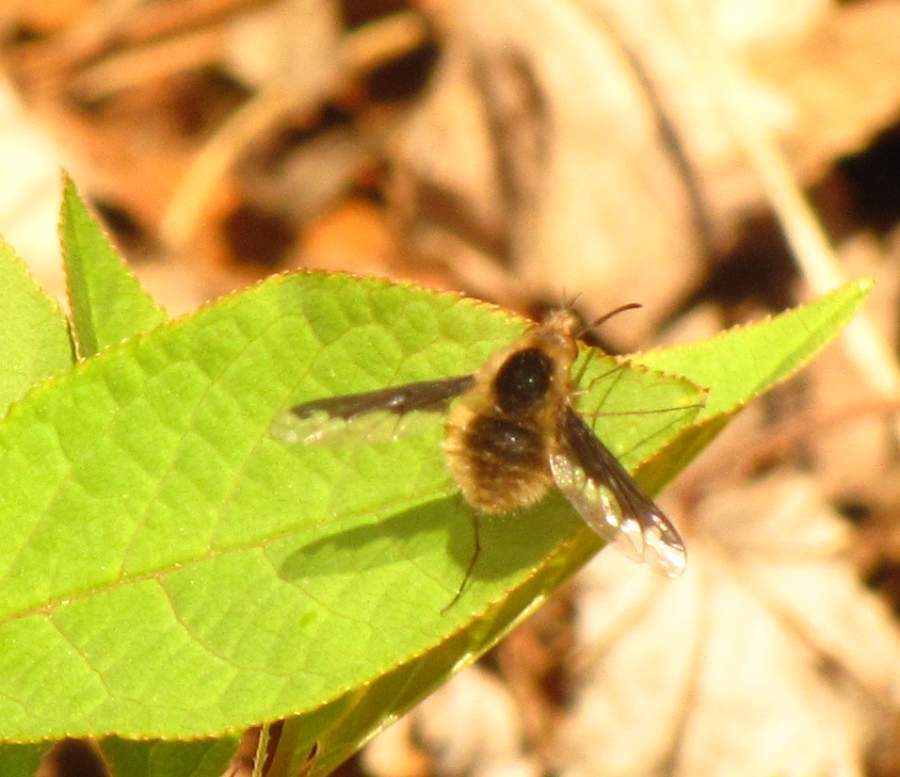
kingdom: Animalia
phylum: Arthropoda
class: Insecta
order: Diptera
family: Bombyliidae
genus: Bombylius
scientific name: Bombylius major
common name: Bee fly
